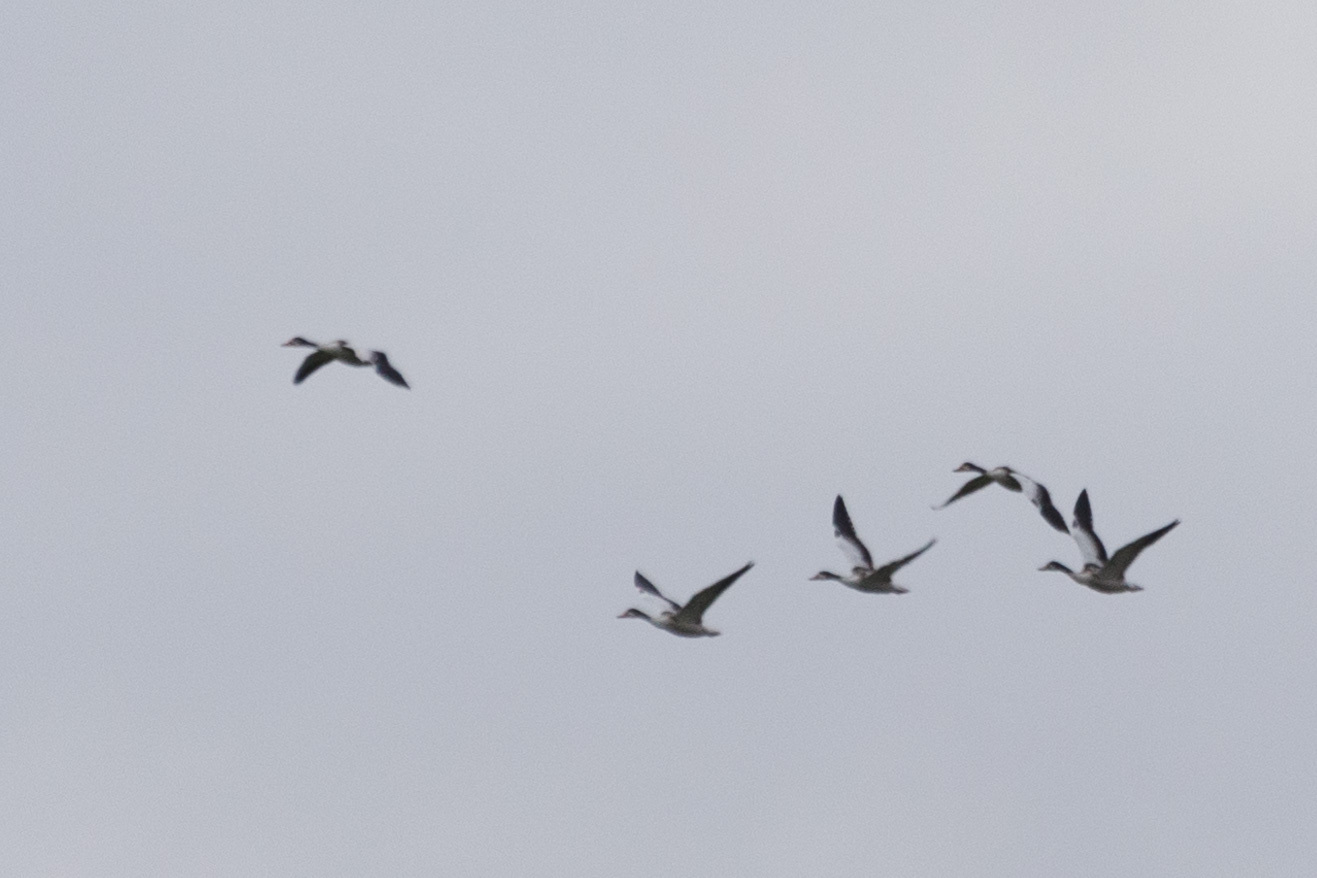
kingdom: Animalia
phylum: Chordata
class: Aves
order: Anseriformes
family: Anatidae
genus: Tadorna
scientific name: Tadorna tadorna
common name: Common shelduck
